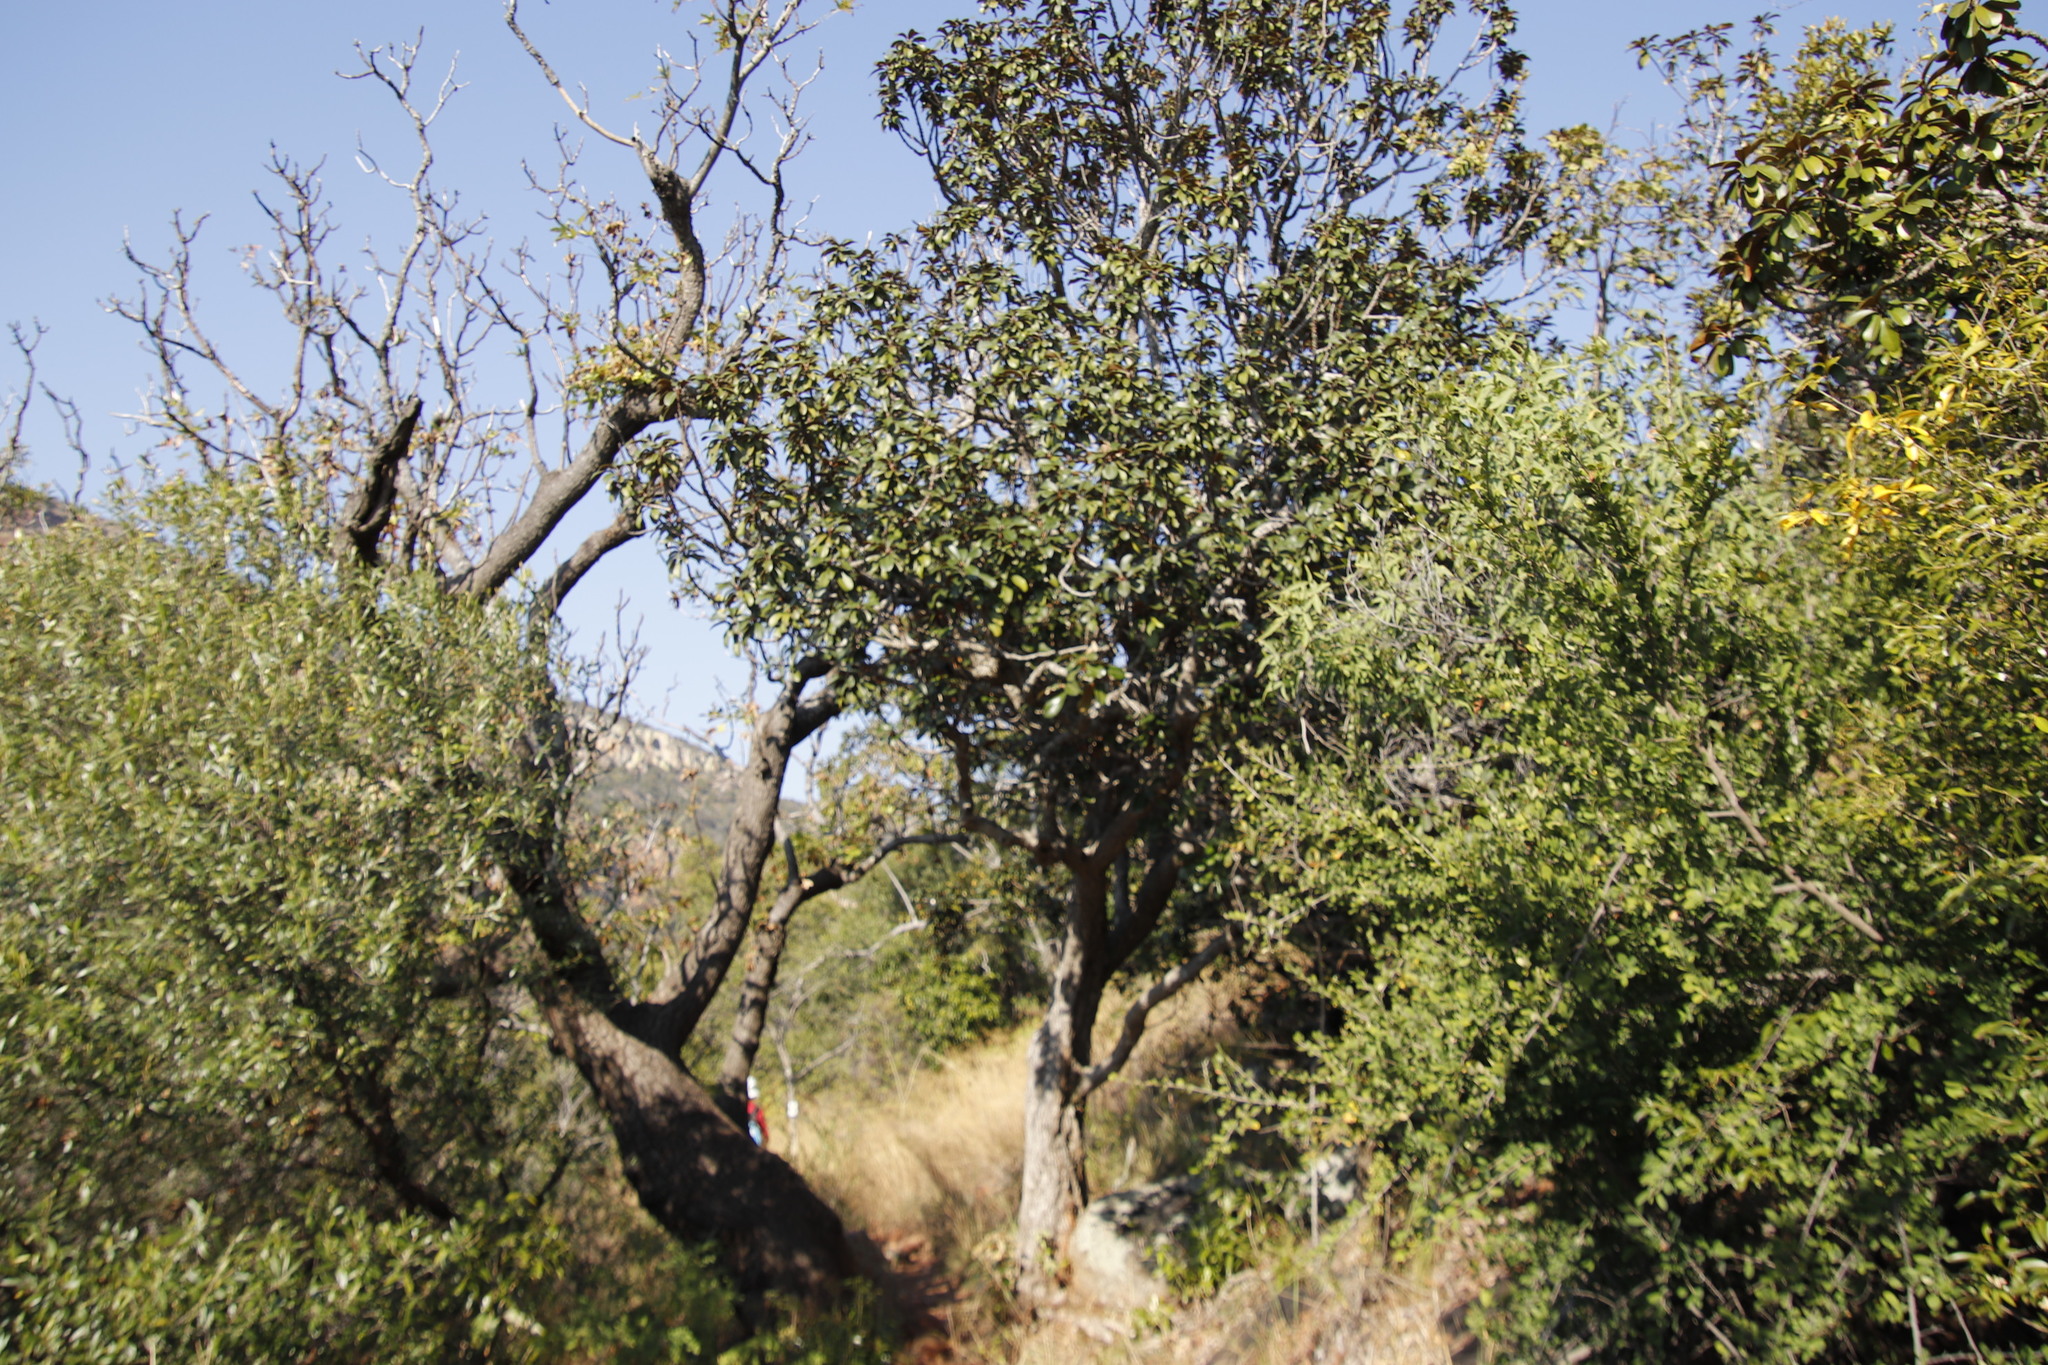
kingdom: Plantae
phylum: Tracheophyta
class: Magnoliopsida
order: Ericales
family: Sapotaceae
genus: Englerophytum
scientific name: Englerophytum magalismontanum
